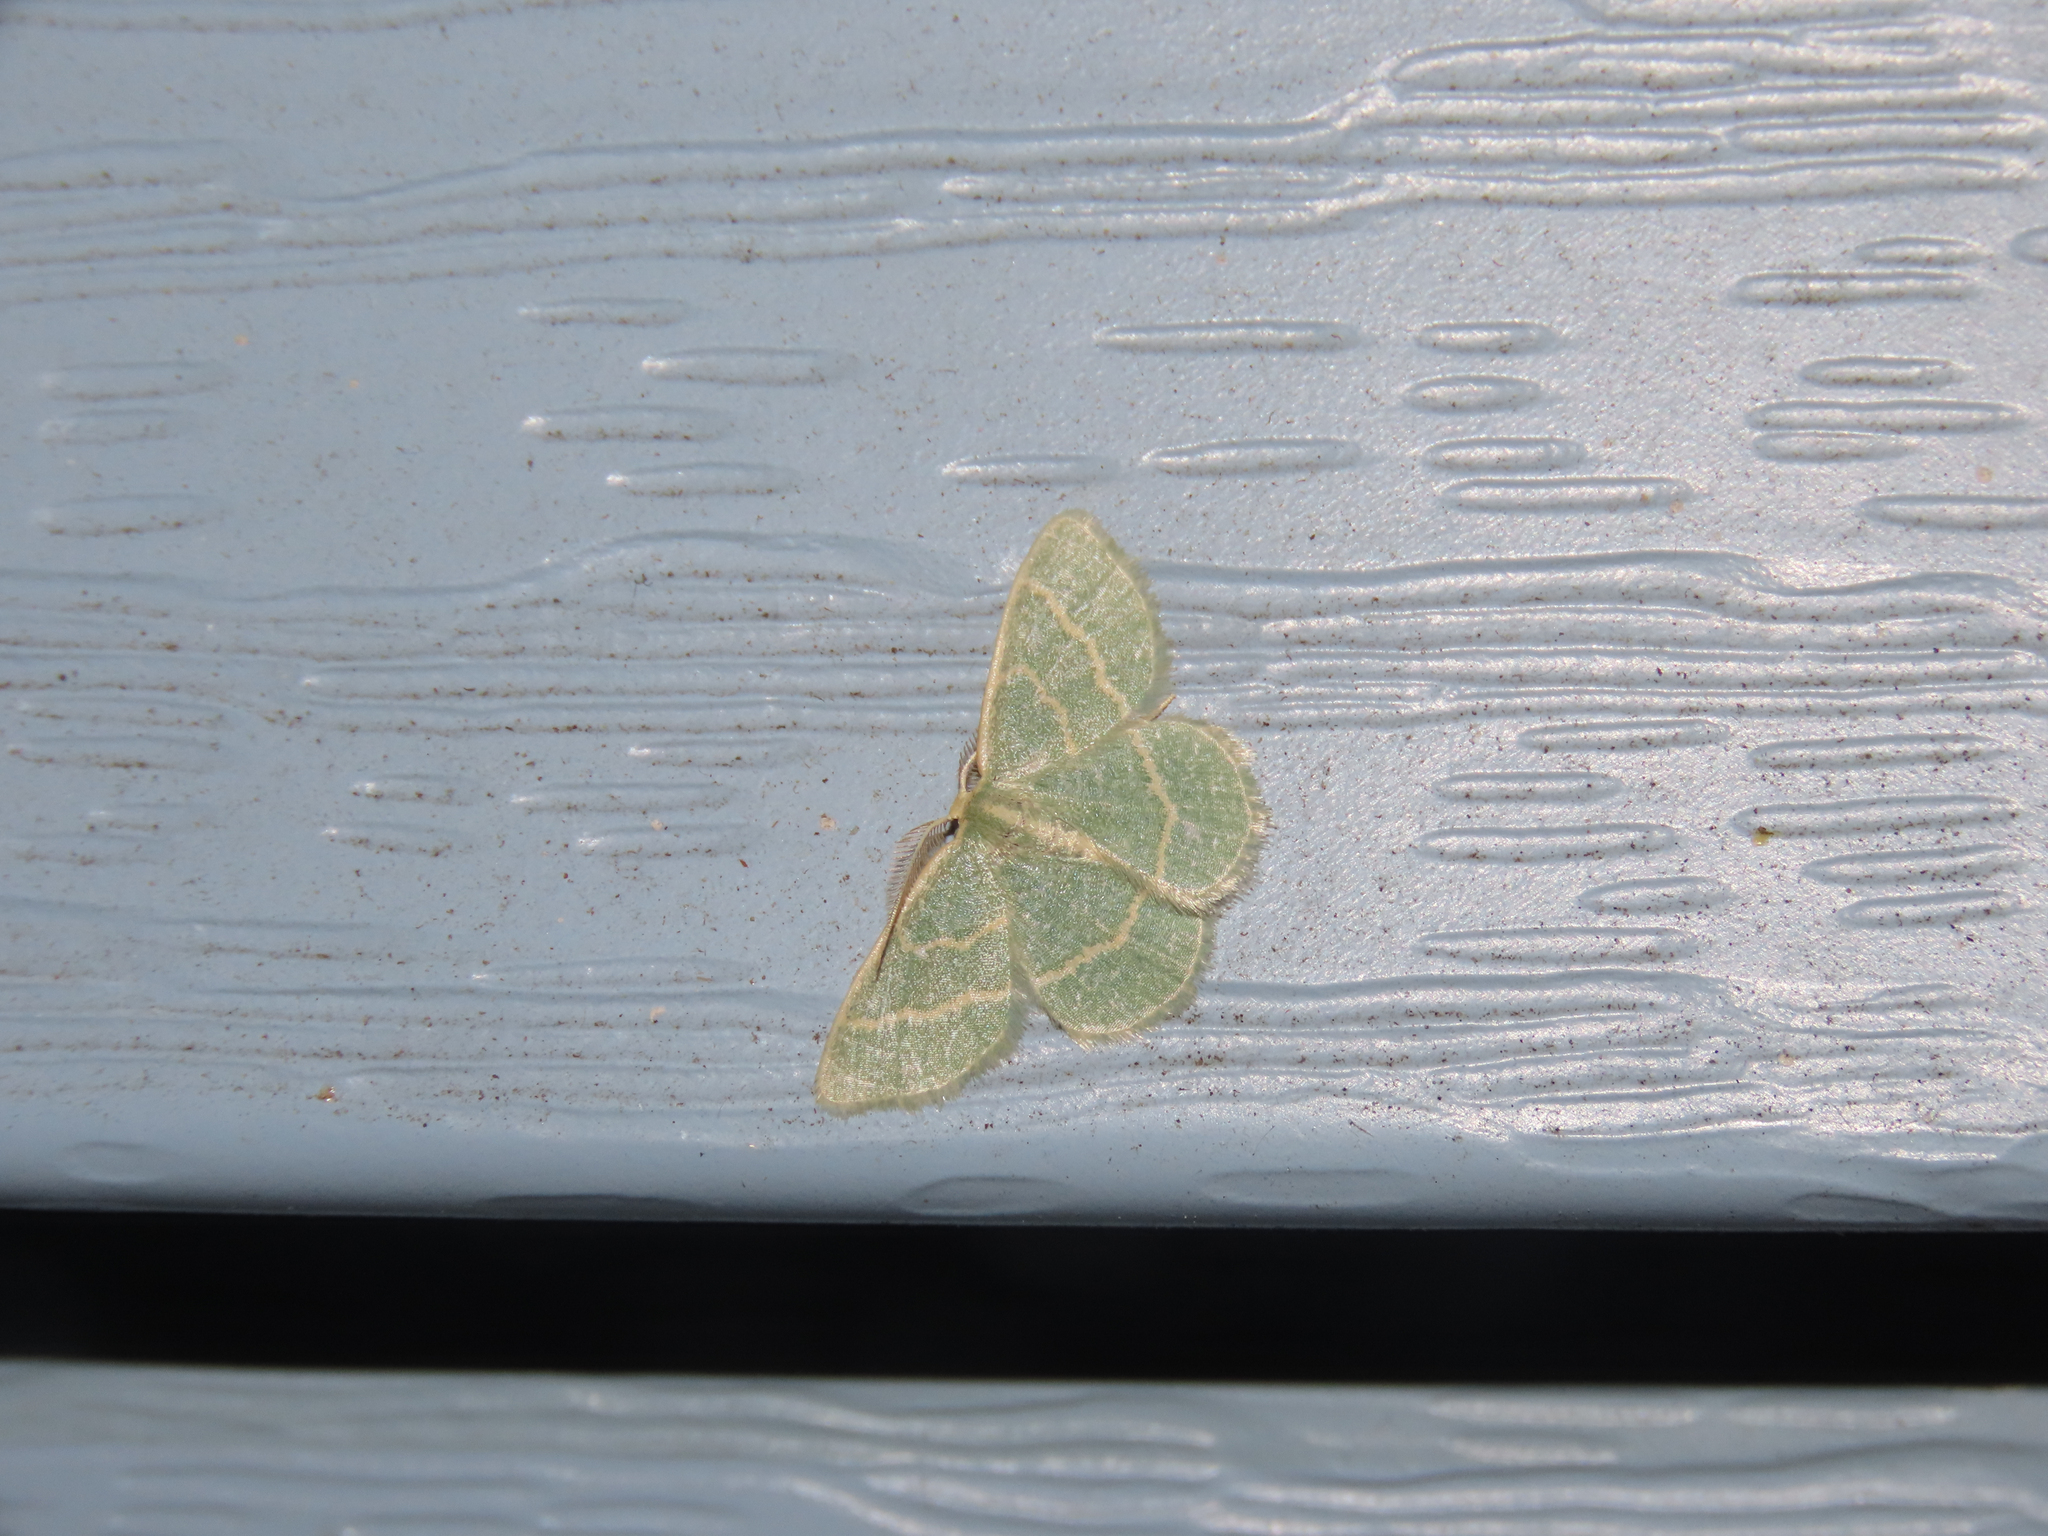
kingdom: Animalia
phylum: Arthropoda
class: Insecta
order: Lepidoptera
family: Geometridae
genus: Chlorochlamys
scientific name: Chlorochlamys chloroleucaria
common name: Blackberry looper
